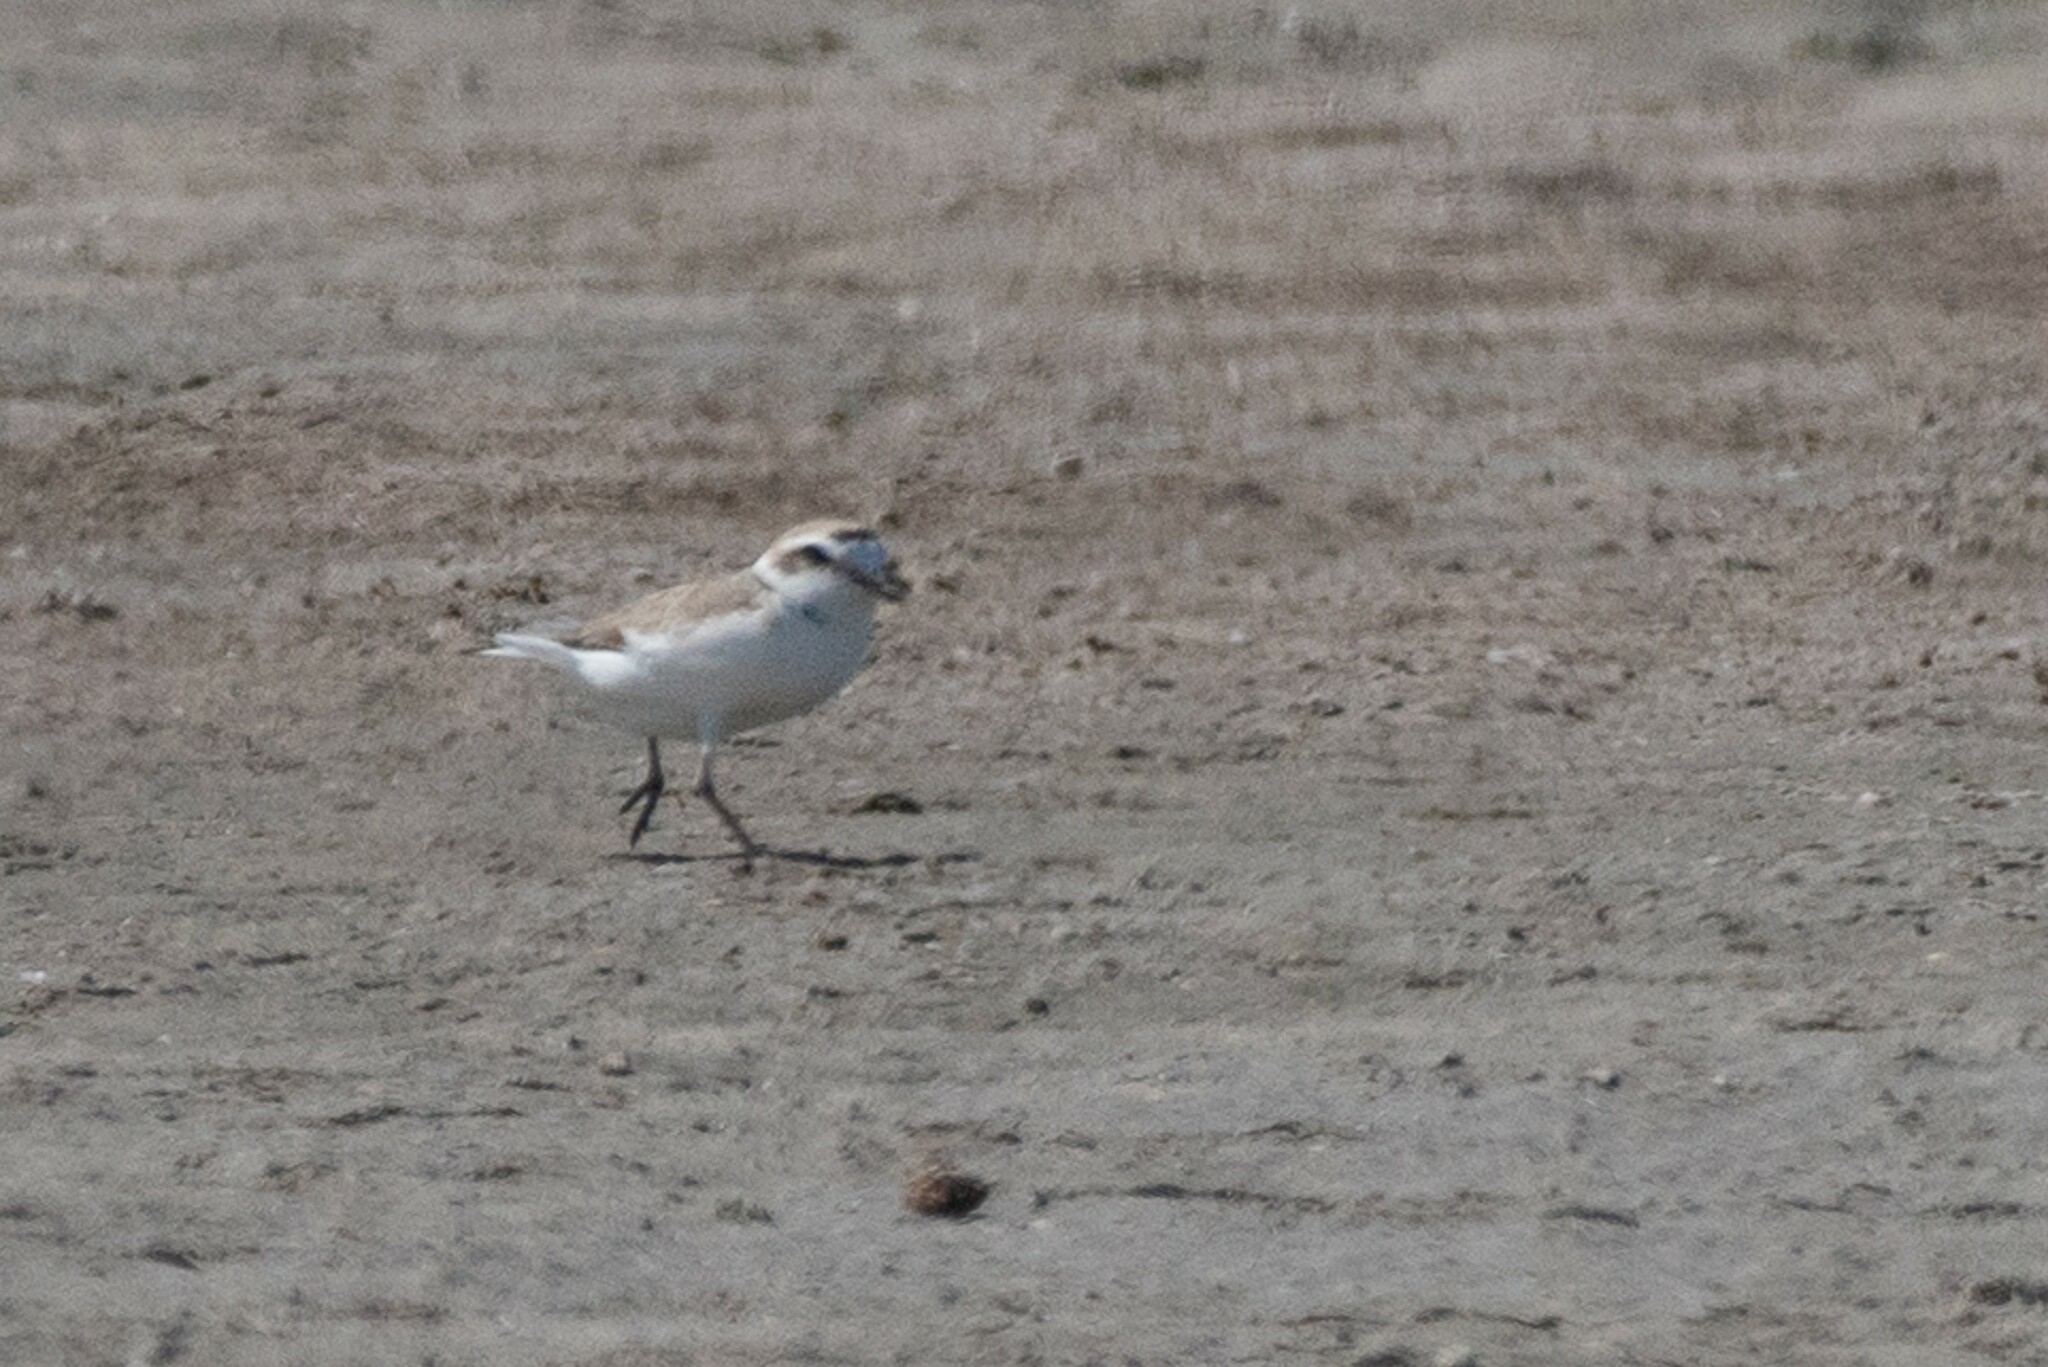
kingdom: Animalia
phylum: Chordata
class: Aves
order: Charadriiformes
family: Charadriidae
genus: Anarhynchus
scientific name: Anarhynchus
